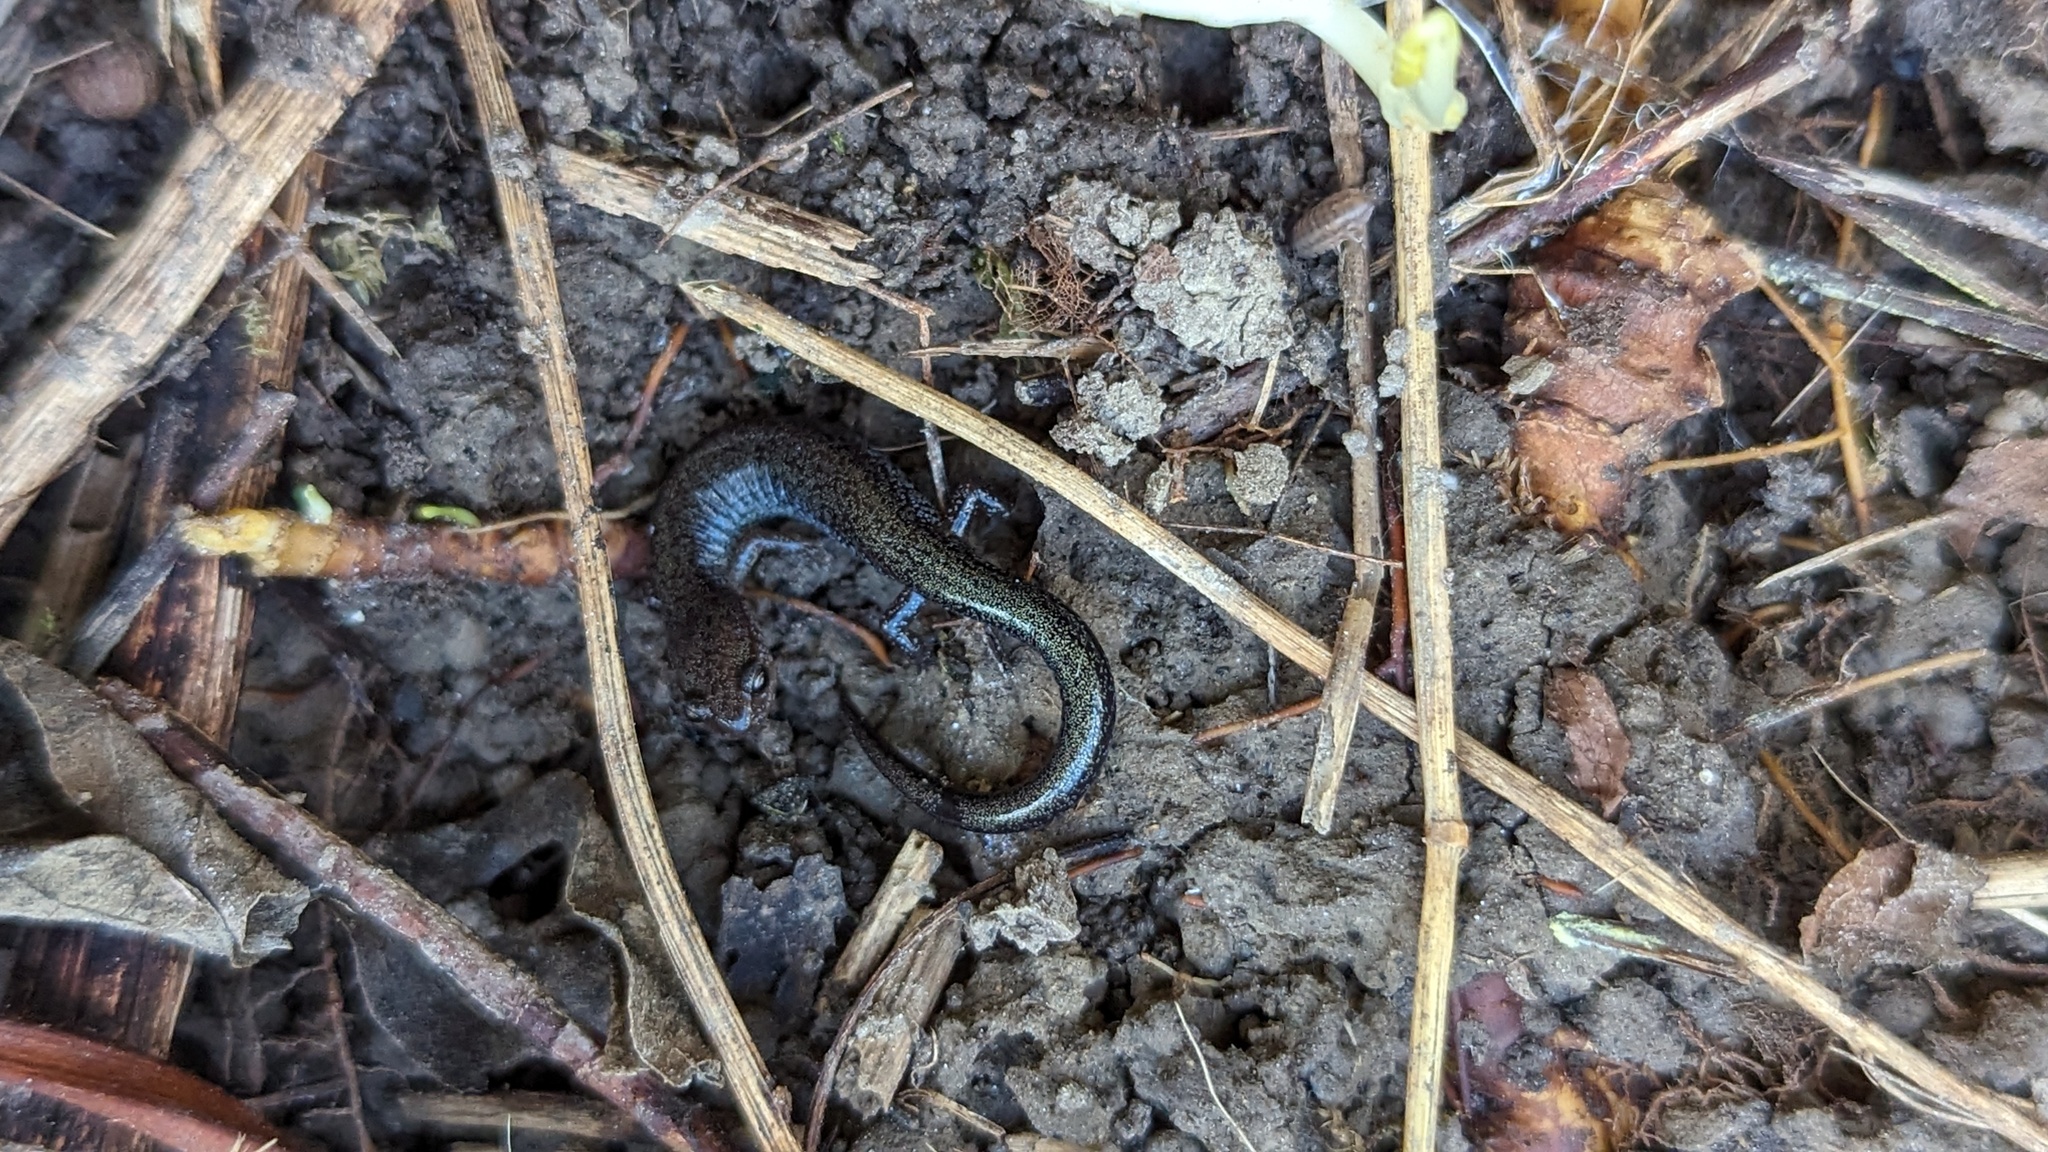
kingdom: Animalia
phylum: Chordata
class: Amphibia
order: Caudata
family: Plethodontidae
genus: Plethodon
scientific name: Plethodon cinereus
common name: Redback salamander
